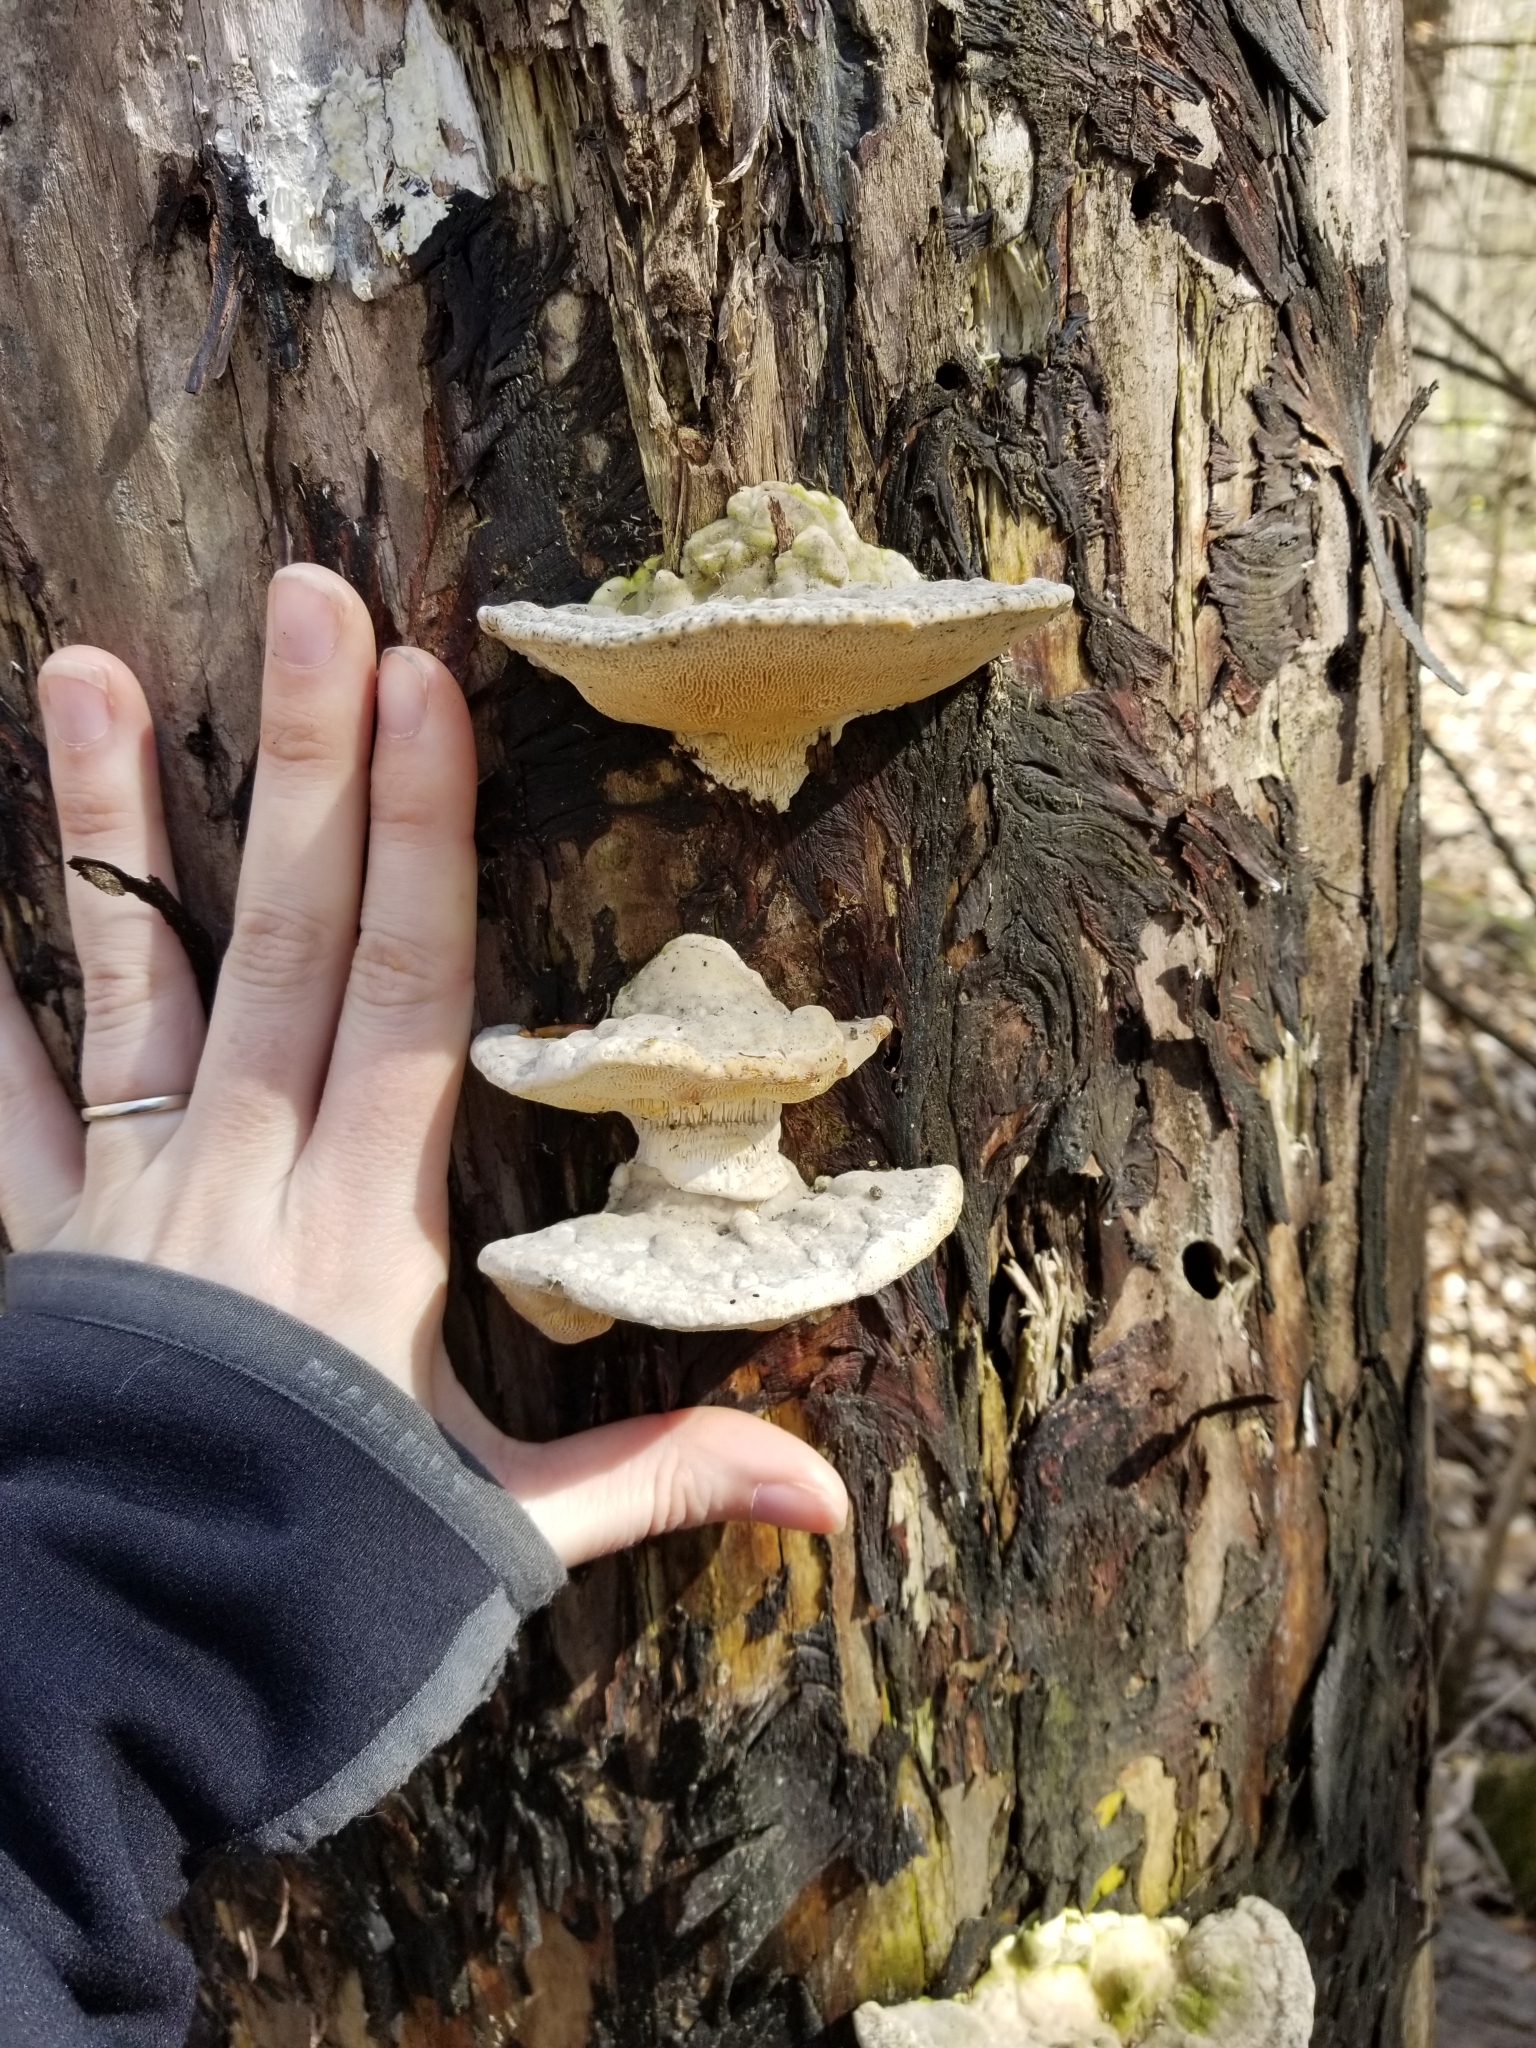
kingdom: Fungi
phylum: Basidiomycota
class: Agaricomycetes
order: Polyporales
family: Polyporaceae
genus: Trametes
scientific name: Trametes gibbosa
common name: Lumpy bracket
